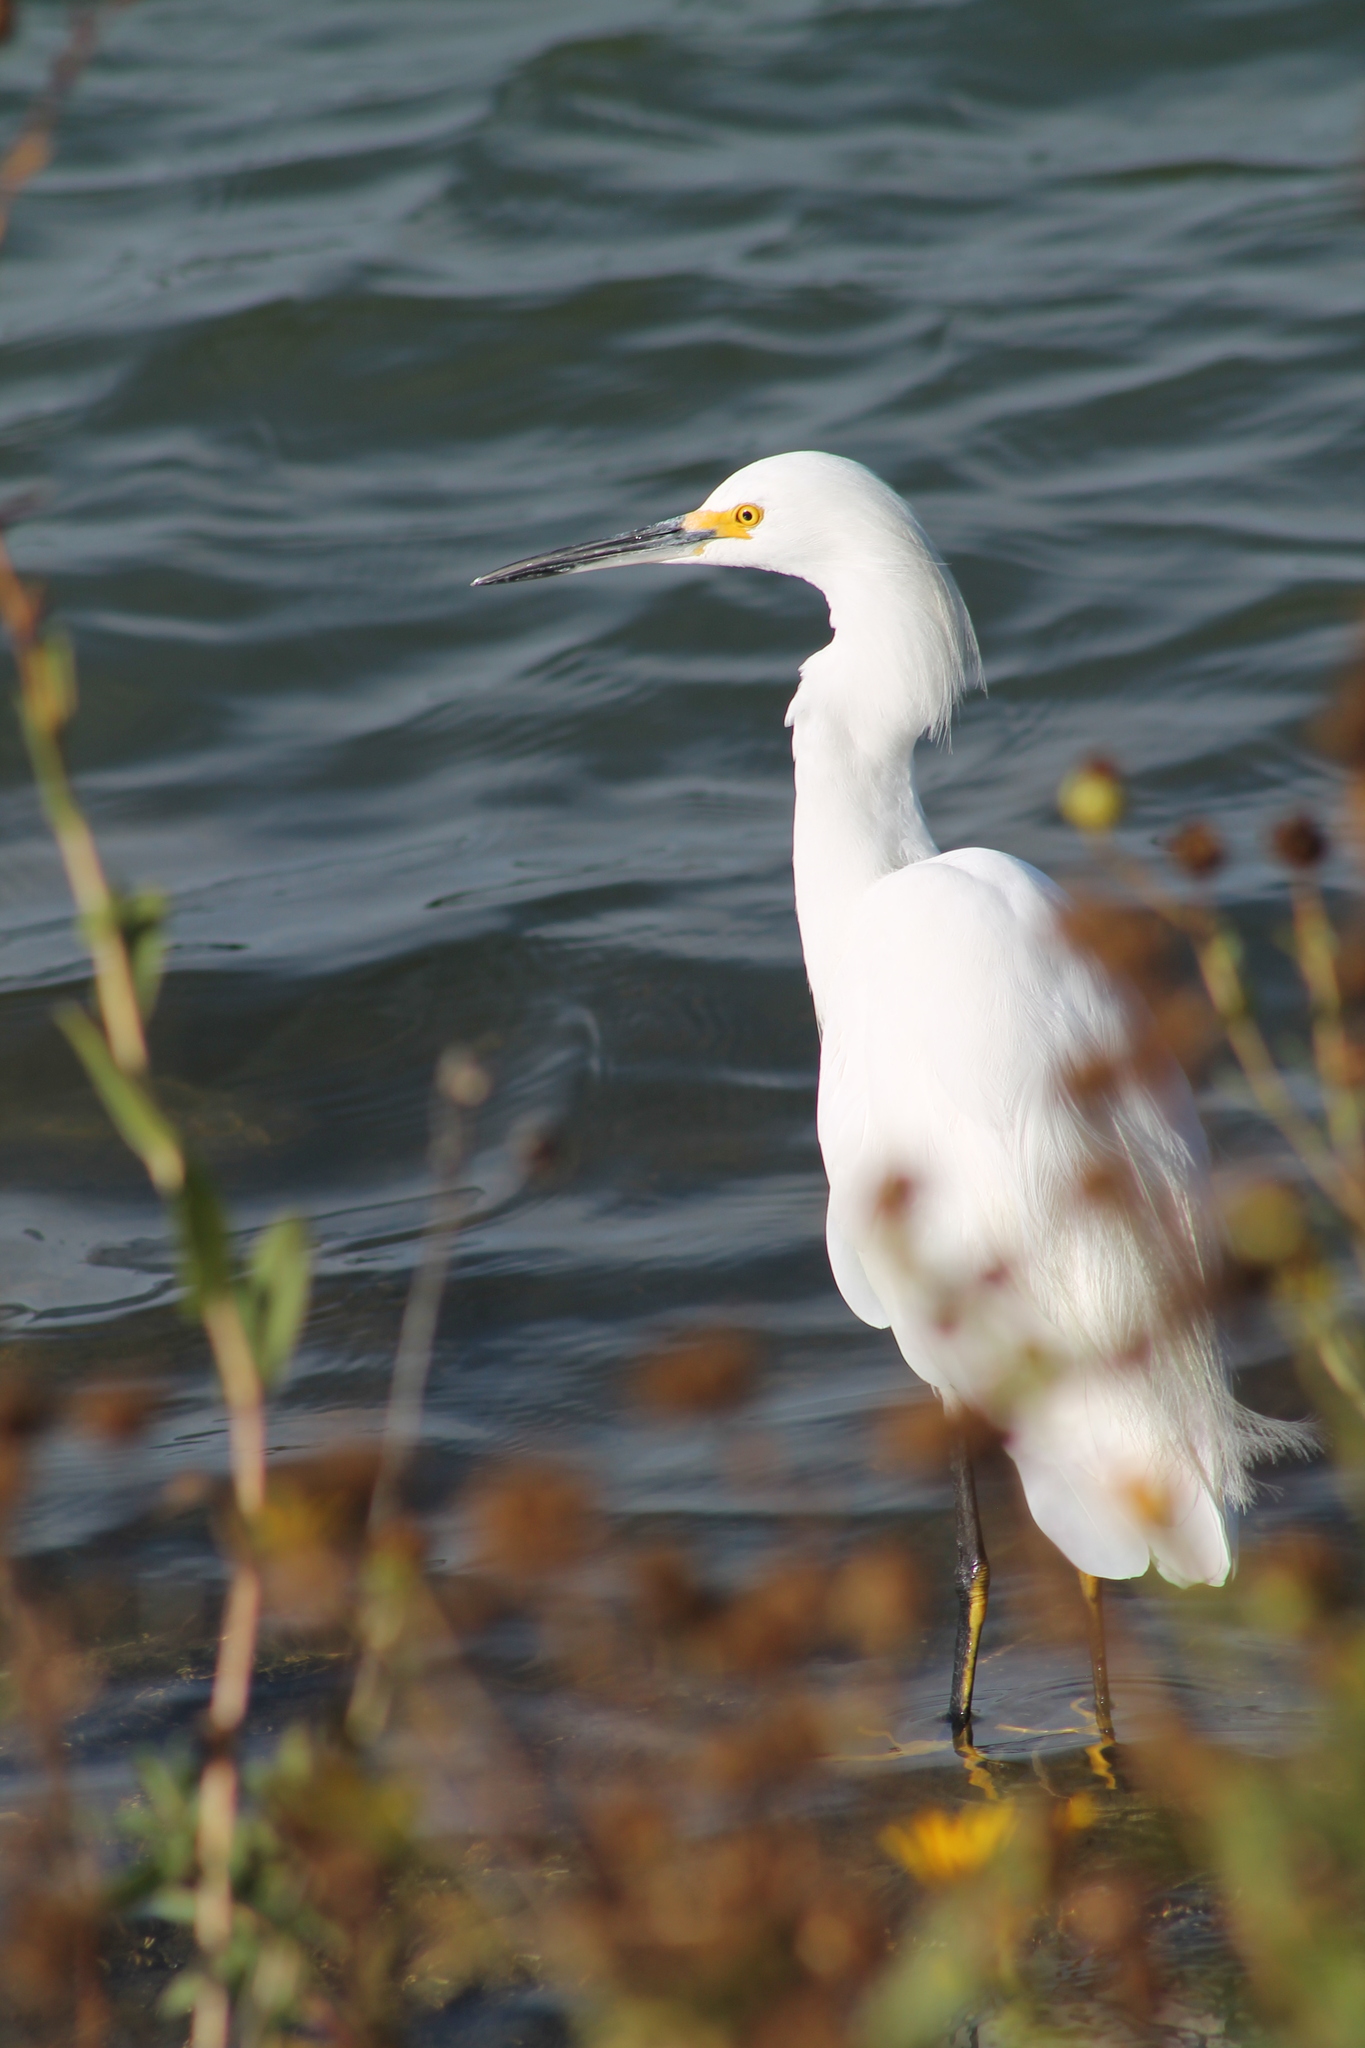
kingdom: Animalia
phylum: Chordata
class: Aves
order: Pelecaniformes
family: Ardeidae
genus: Egretta
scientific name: Egretta thula
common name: Snowy egret
